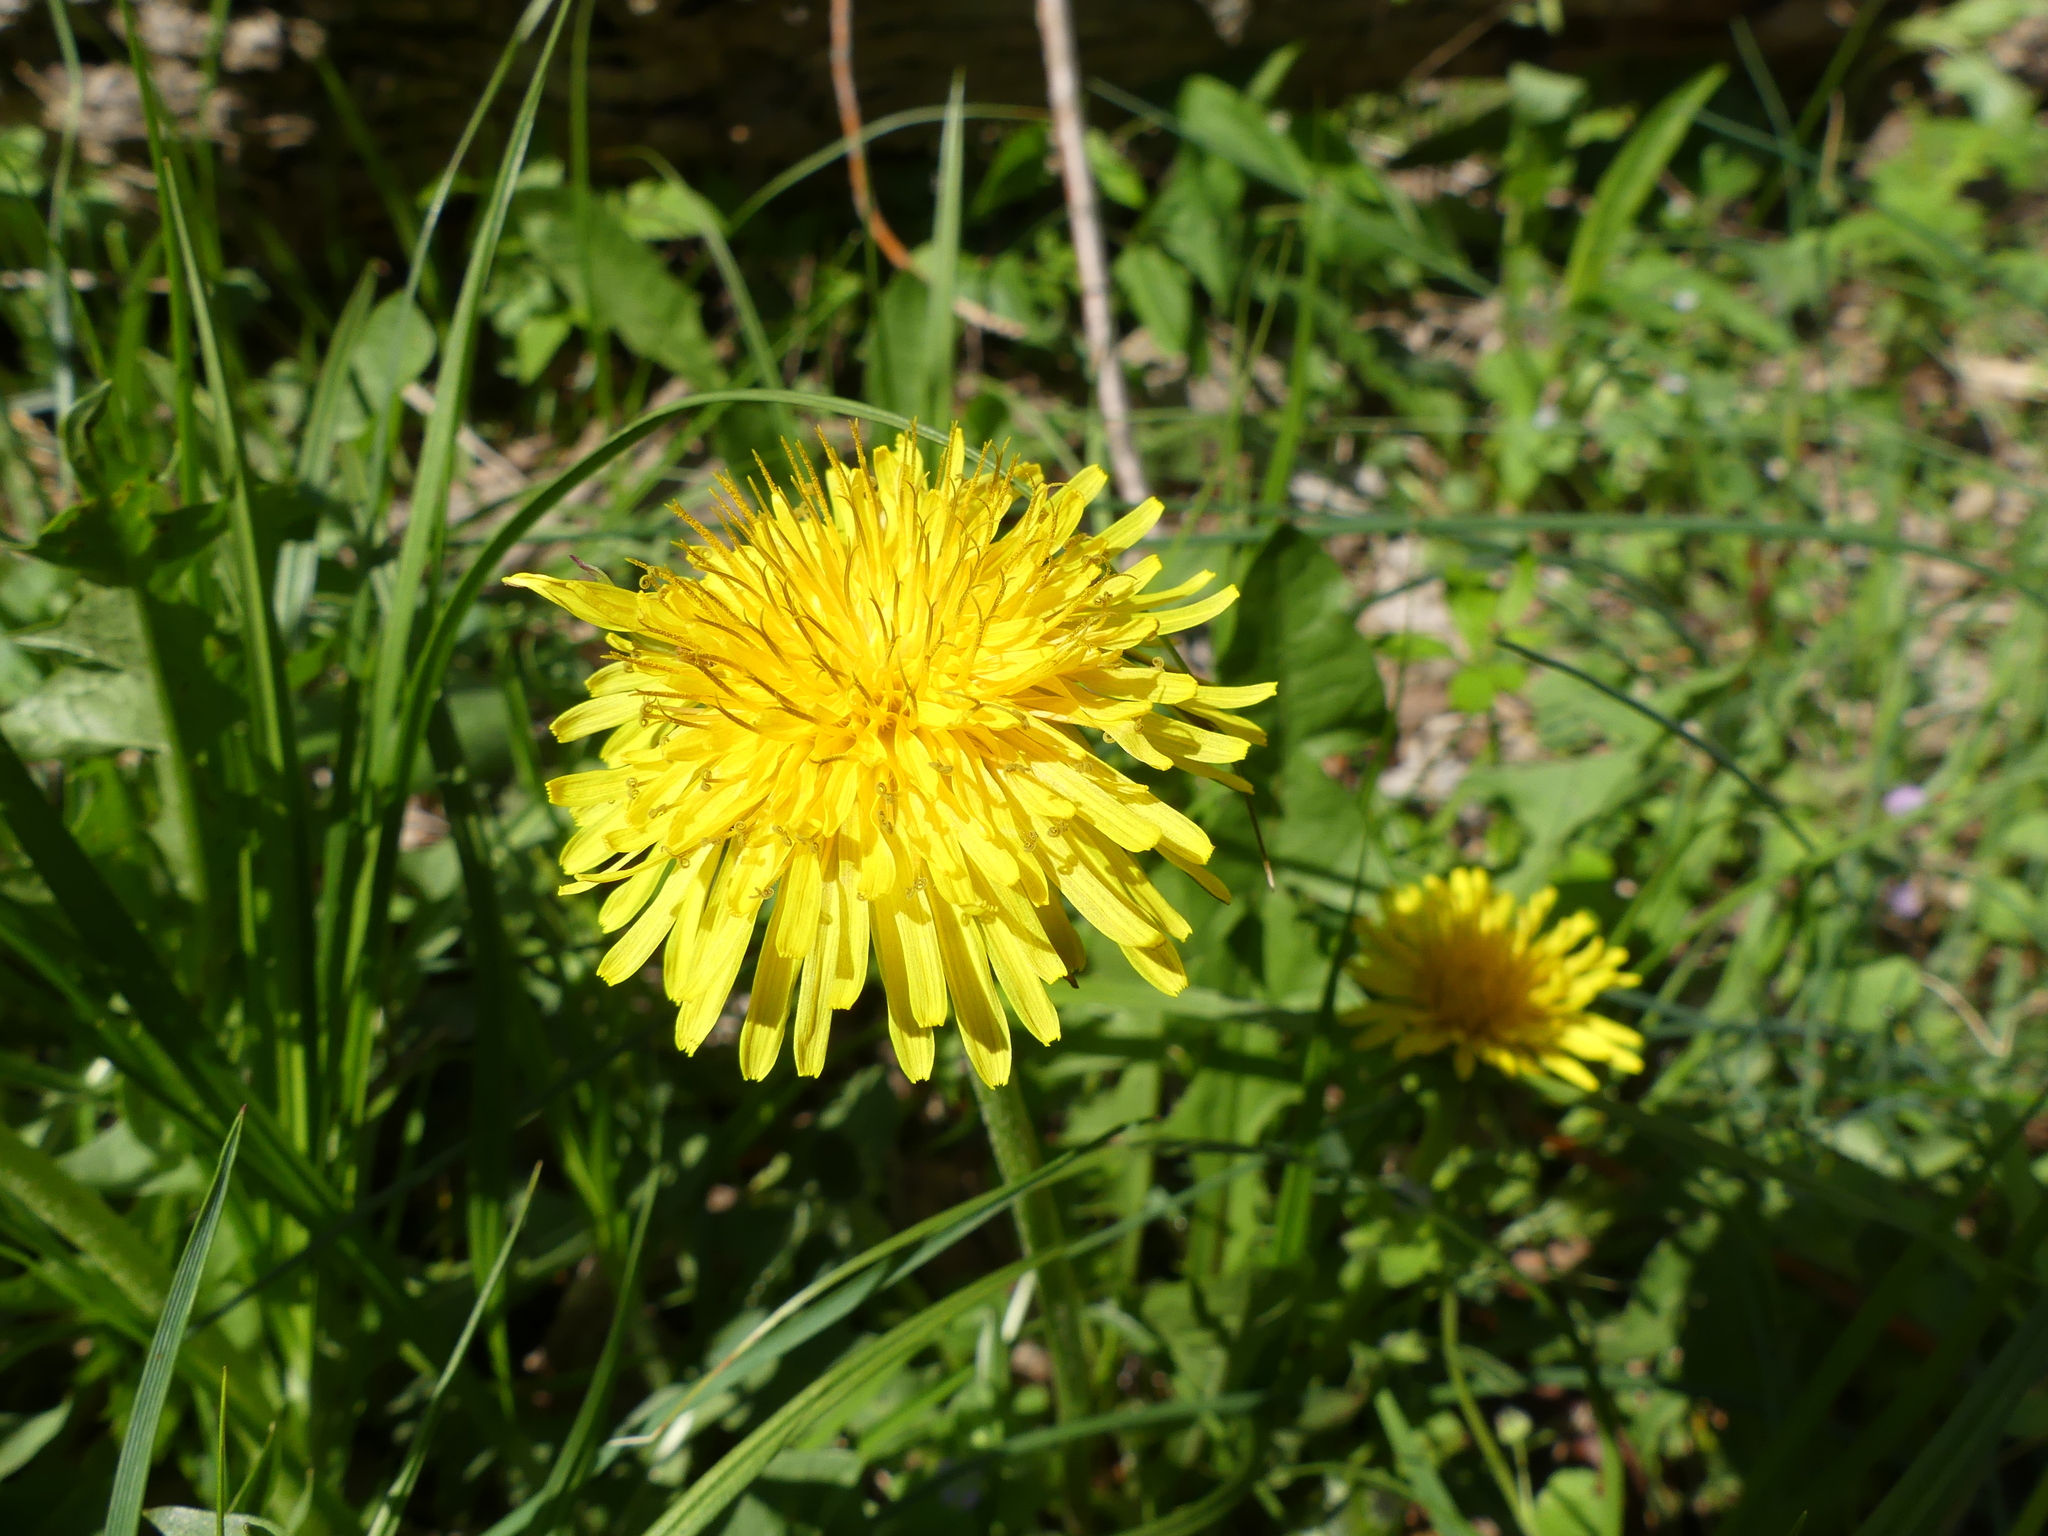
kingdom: Plantae
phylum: Tracheophyta
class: Magnoliopsida
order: Asterales
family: Asteraceae
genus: Taraxacum
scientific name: Taraxacum officinale
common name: Common dandelion
